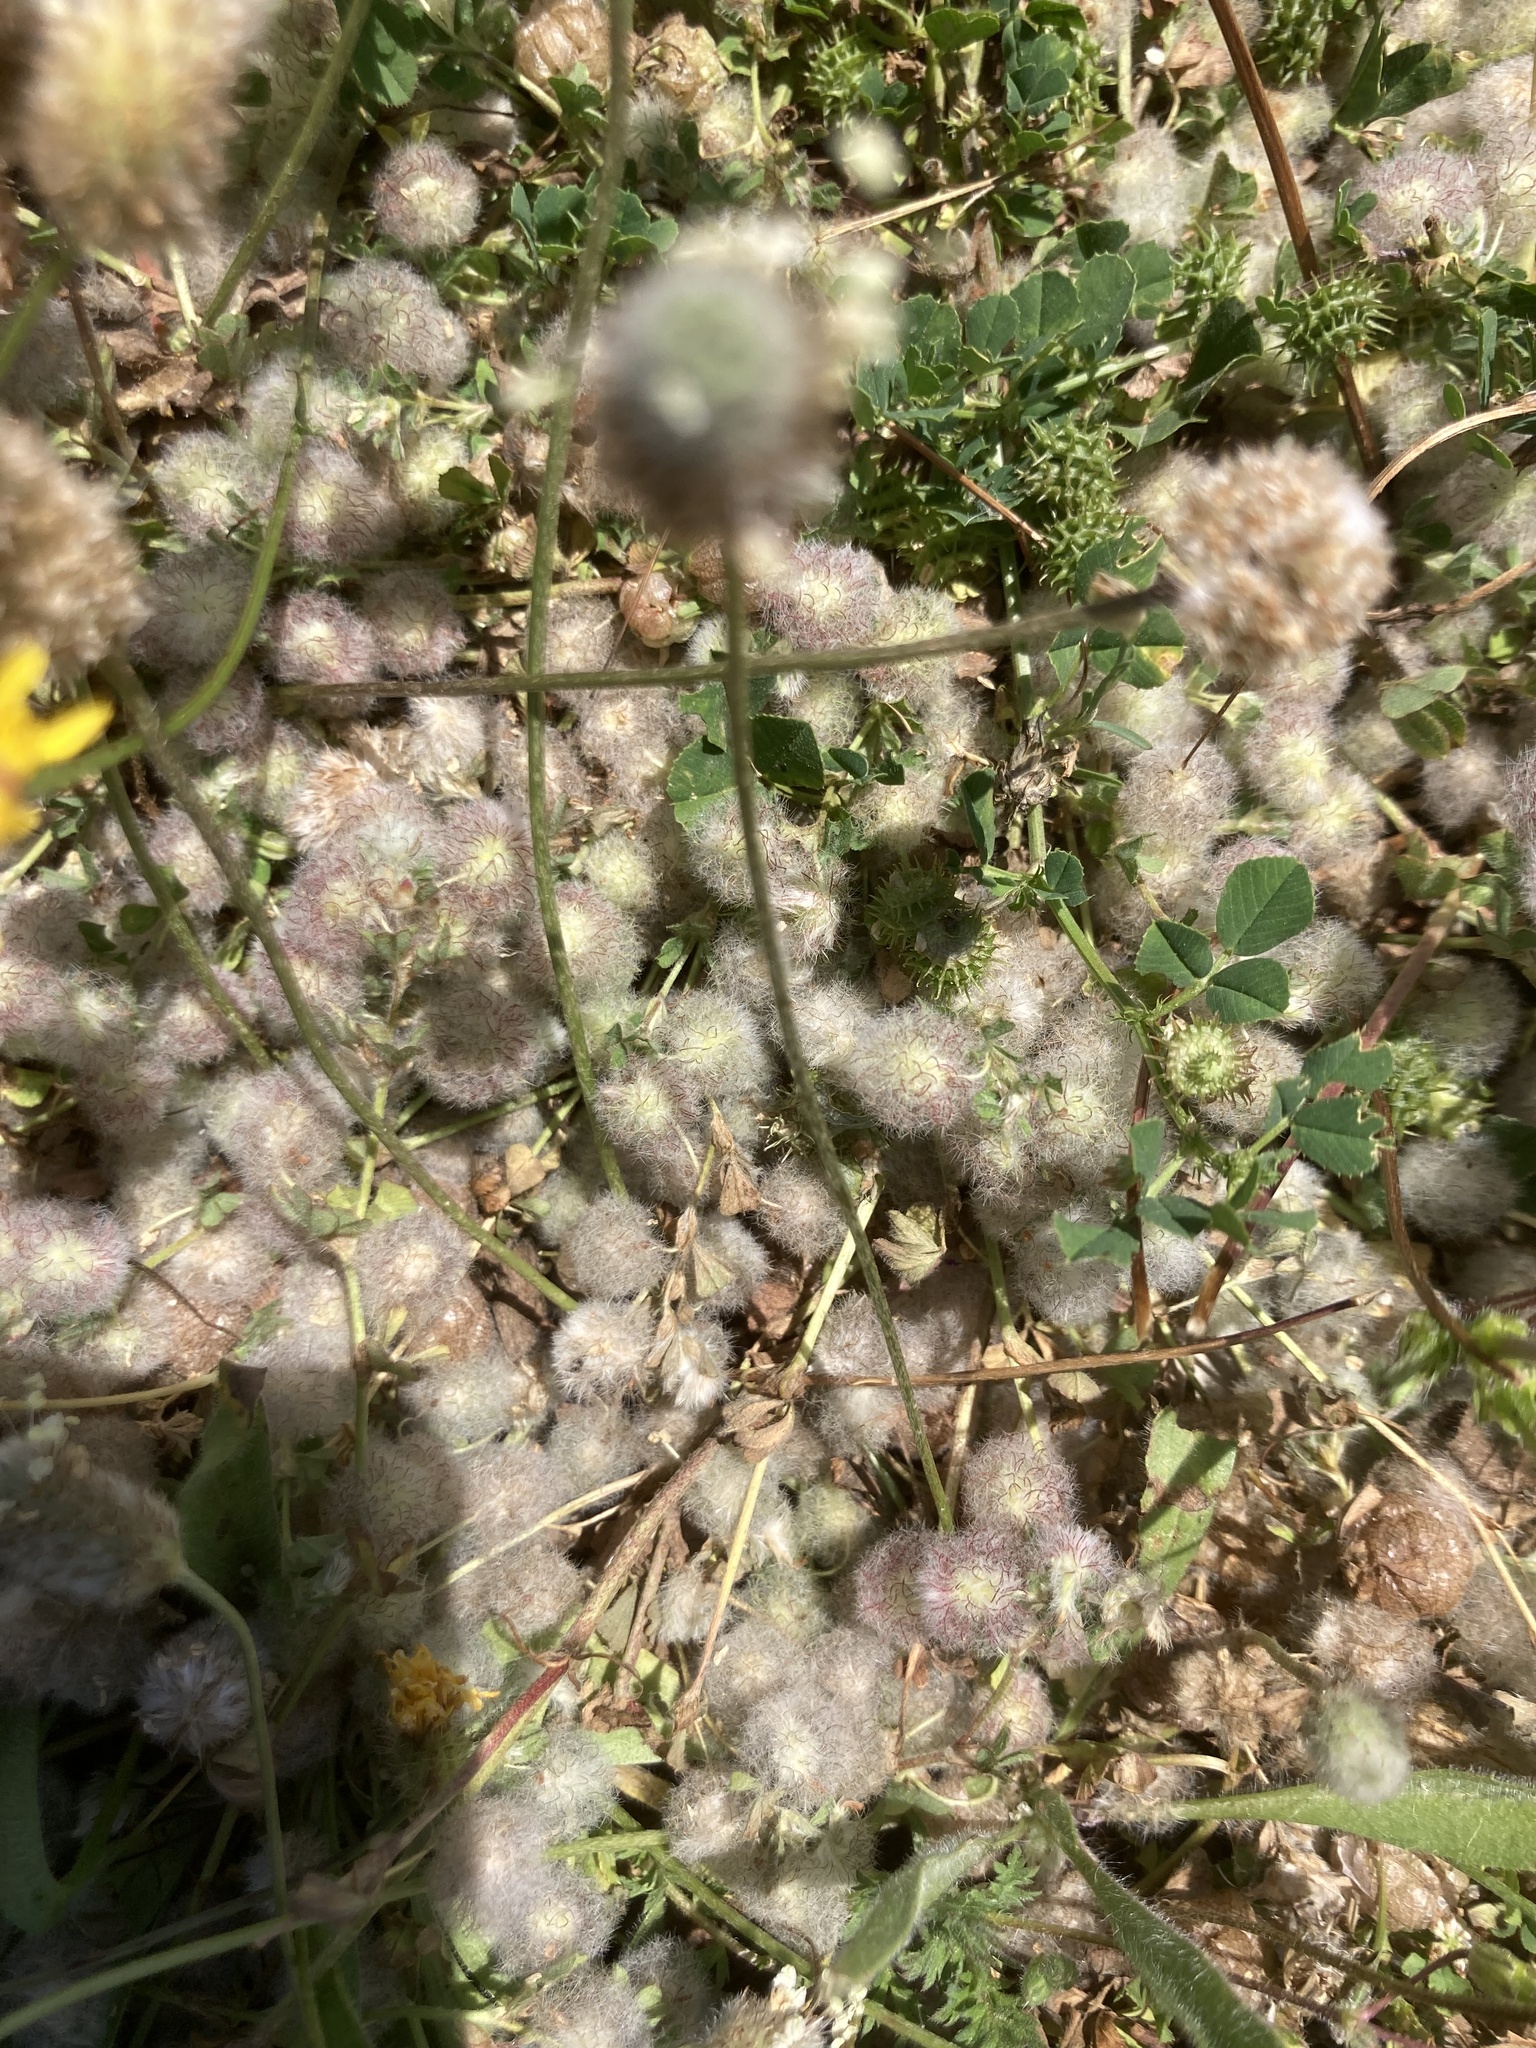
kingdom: Plantae
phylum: Tracheophyta
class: Magnoliopsida
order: Fabales
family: Fabaceae
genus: Trifolium
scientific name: Trifolium pilulare
